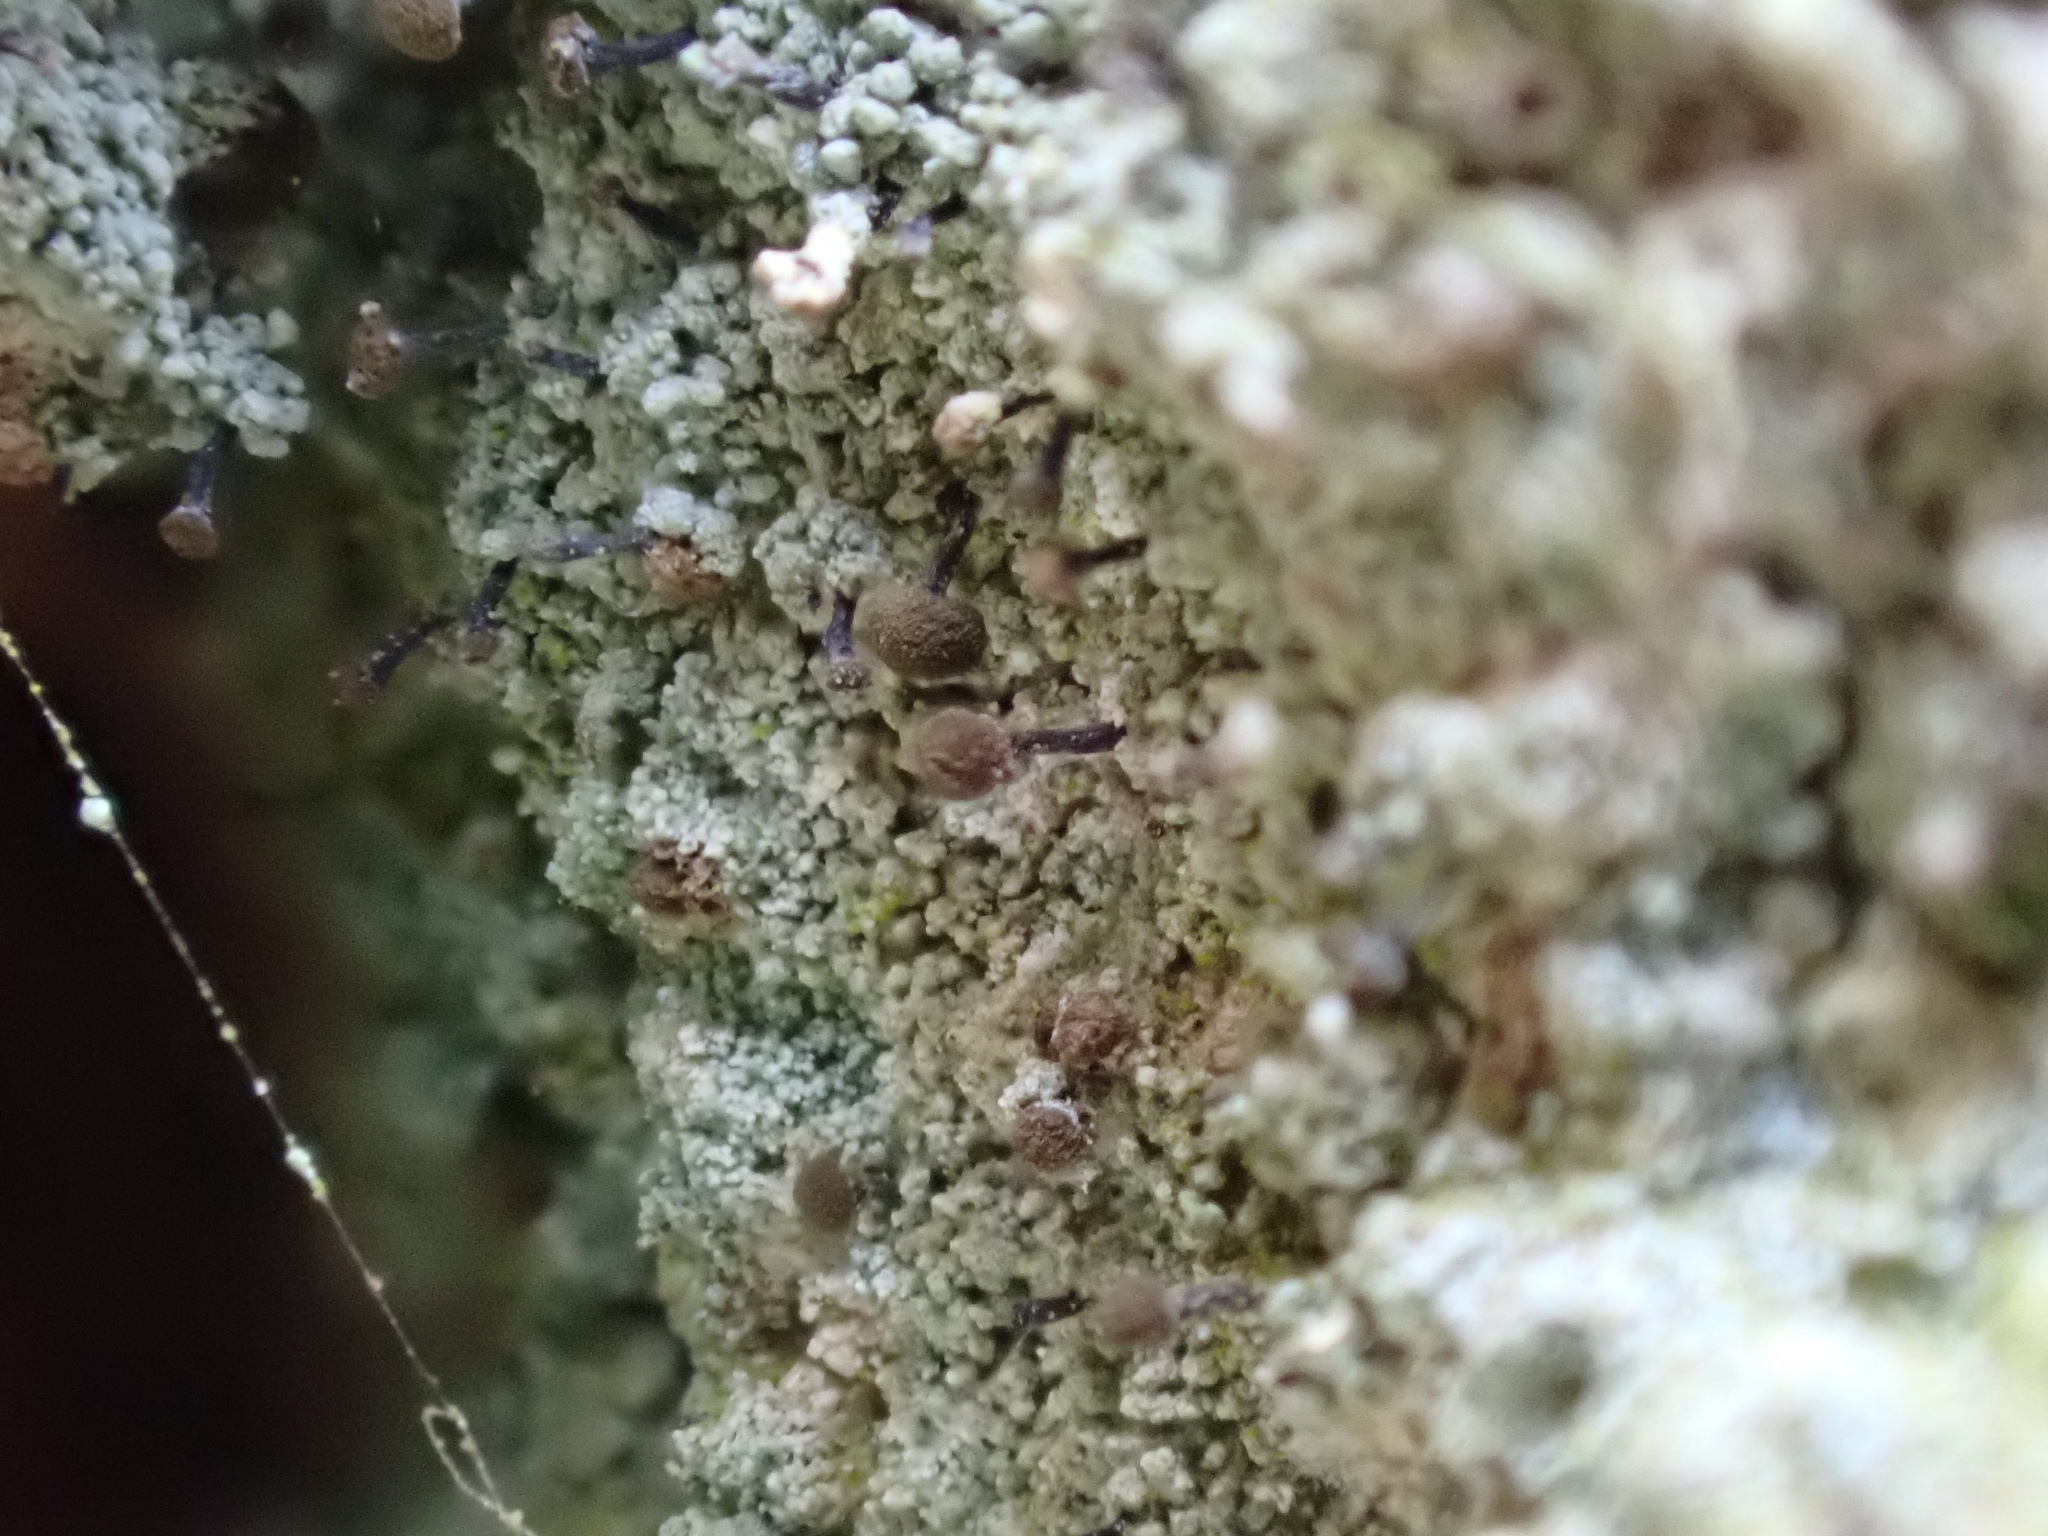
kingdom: Fungi
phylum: Ascomycota
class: Coniocybomycetes
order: Coniocybales
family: Coniocybaceae
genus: Chaenotheca
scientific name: Chaenotheca trichialis
